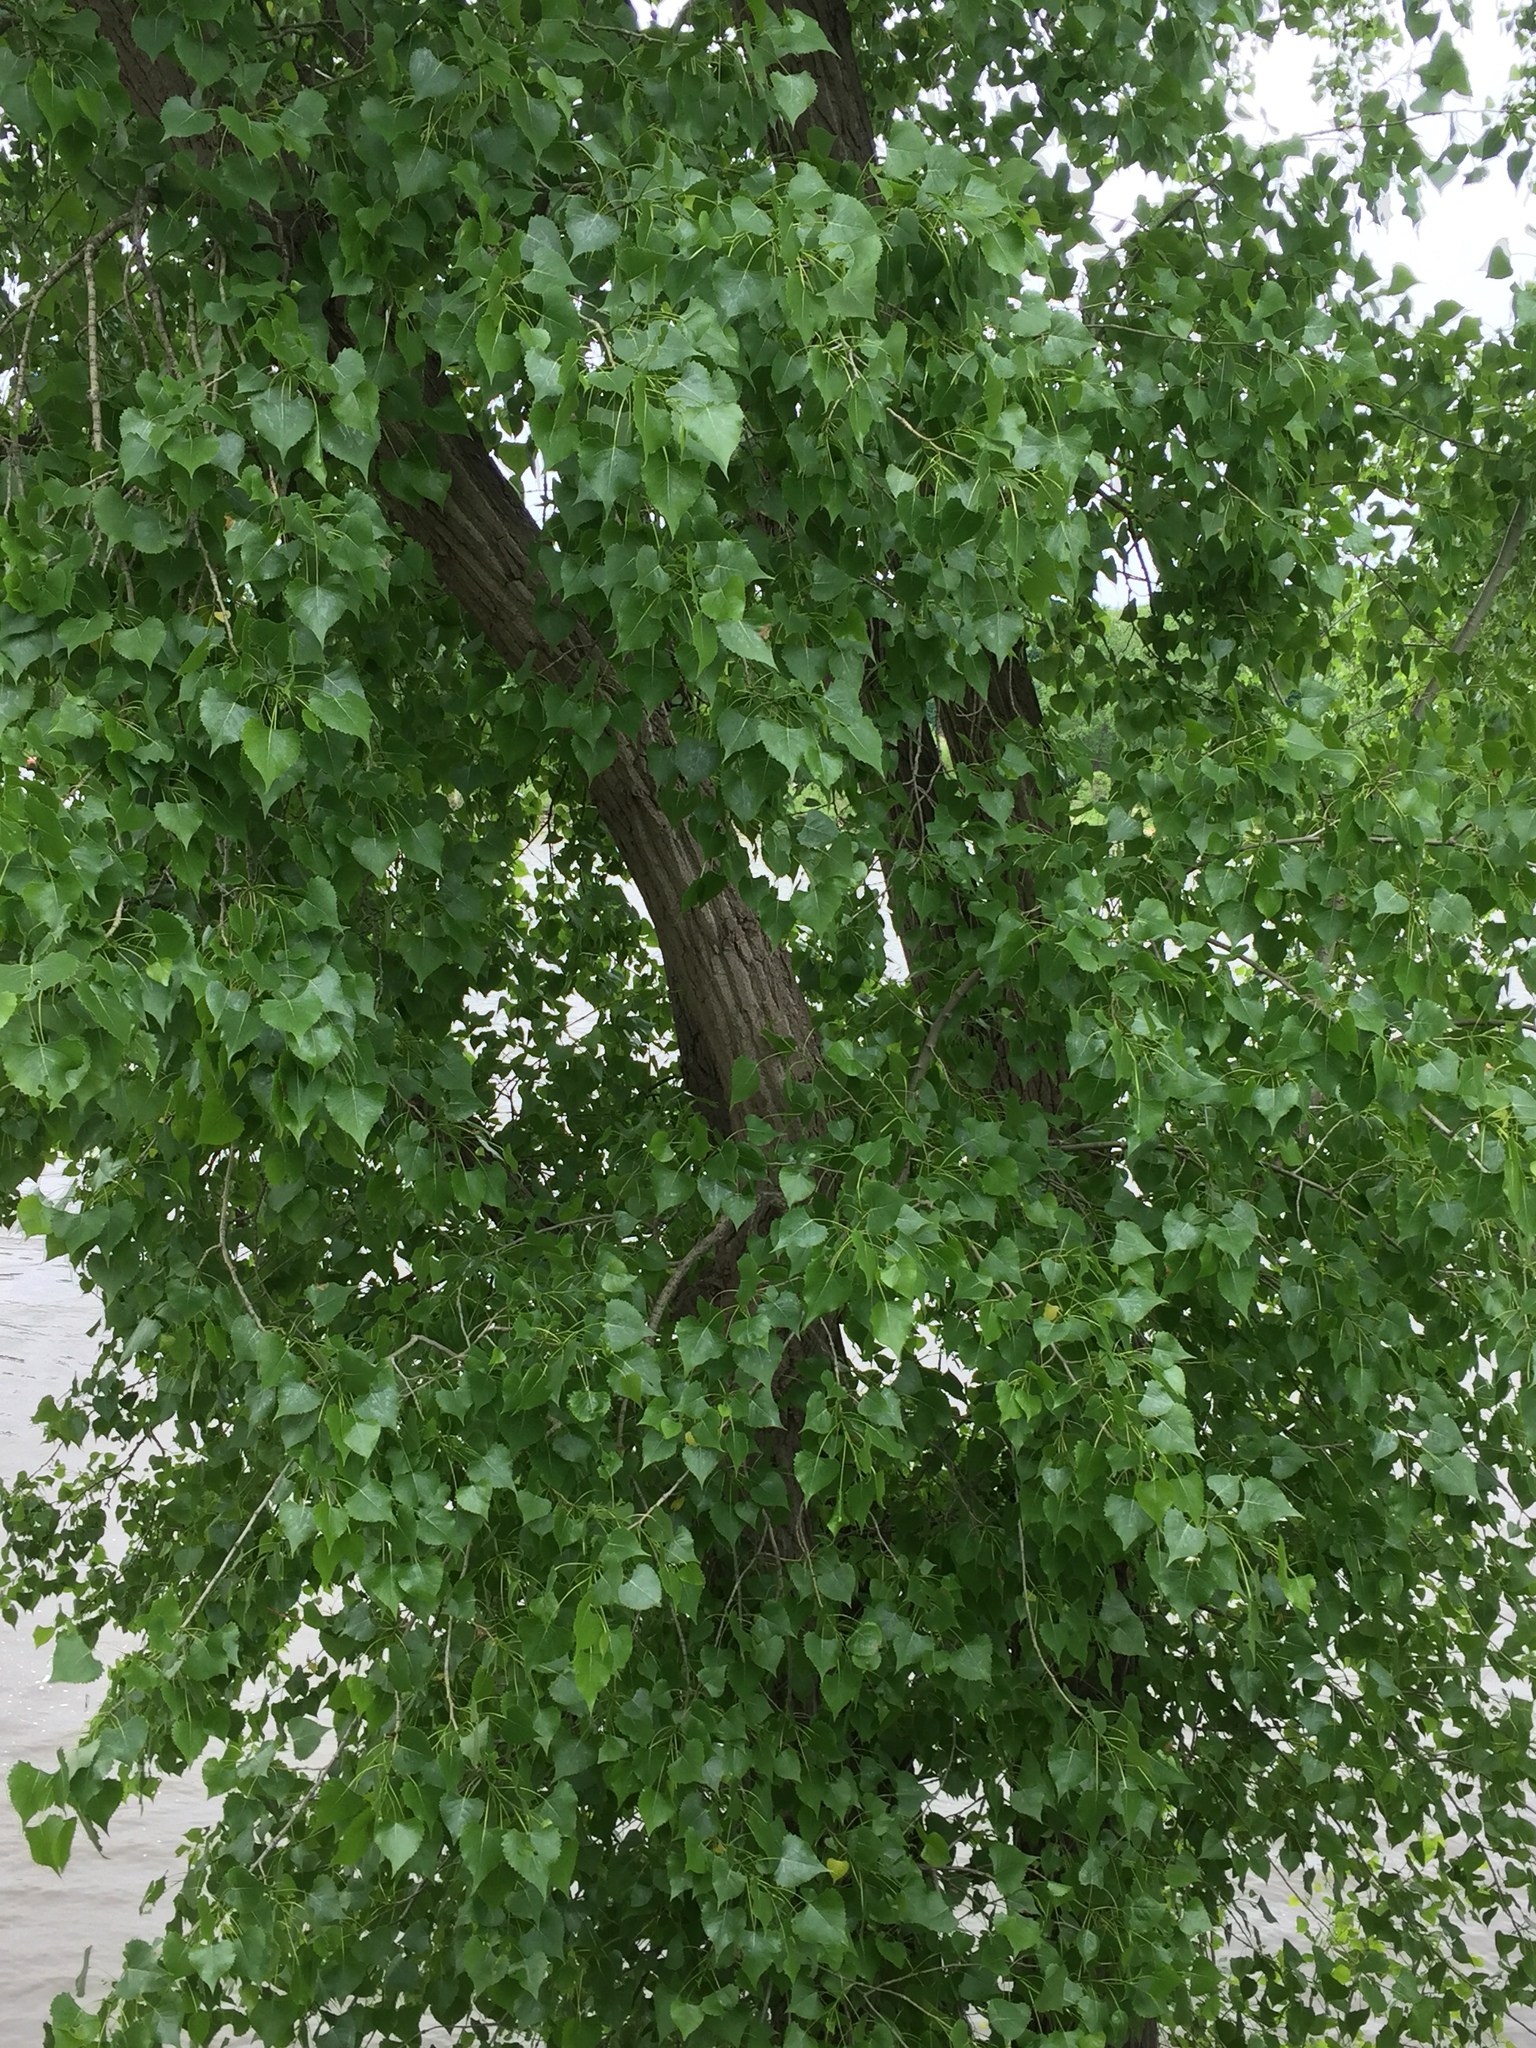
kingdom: Plantae
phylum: Tracheophyta
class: Magnoliopsida
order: Malpighiales
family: Salicaceae
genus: Populus
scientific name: Populus deltoides
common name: Eastern cottonwood
